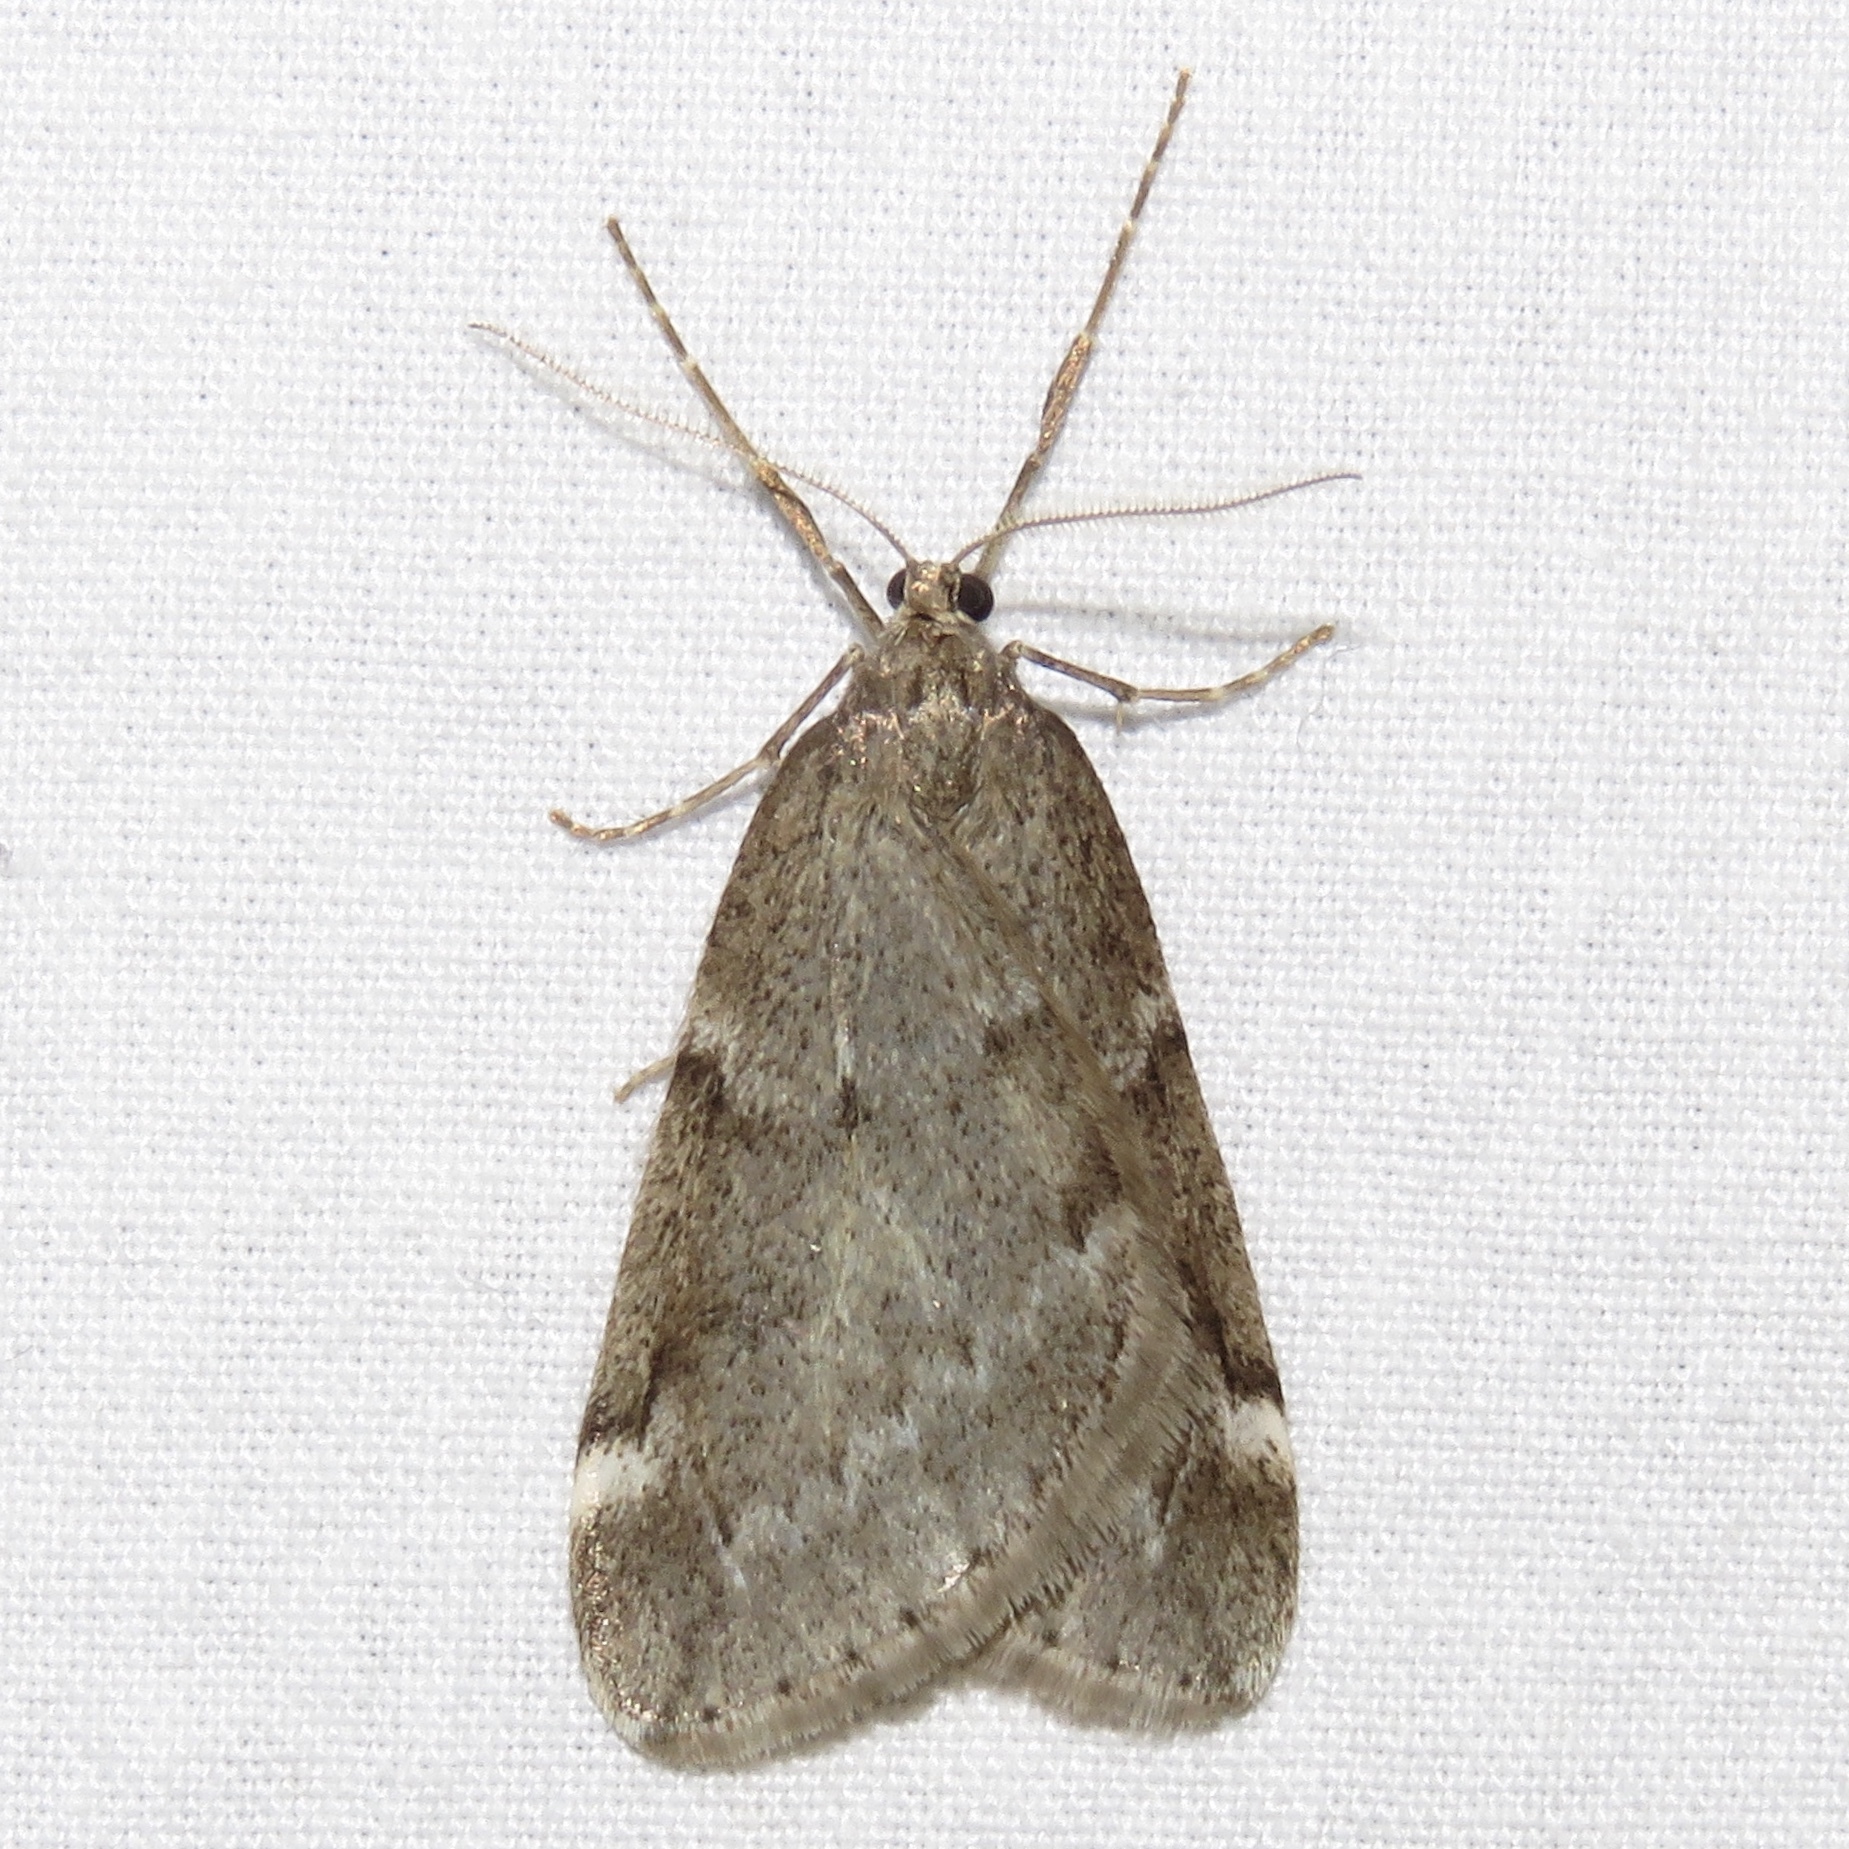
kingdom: Animalia
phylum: Arthropoda
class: Insecta
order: Lepidoptera
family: Geometridae
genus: Alsophila
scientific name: Alsophila pometaria
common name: Fall cankerworm
